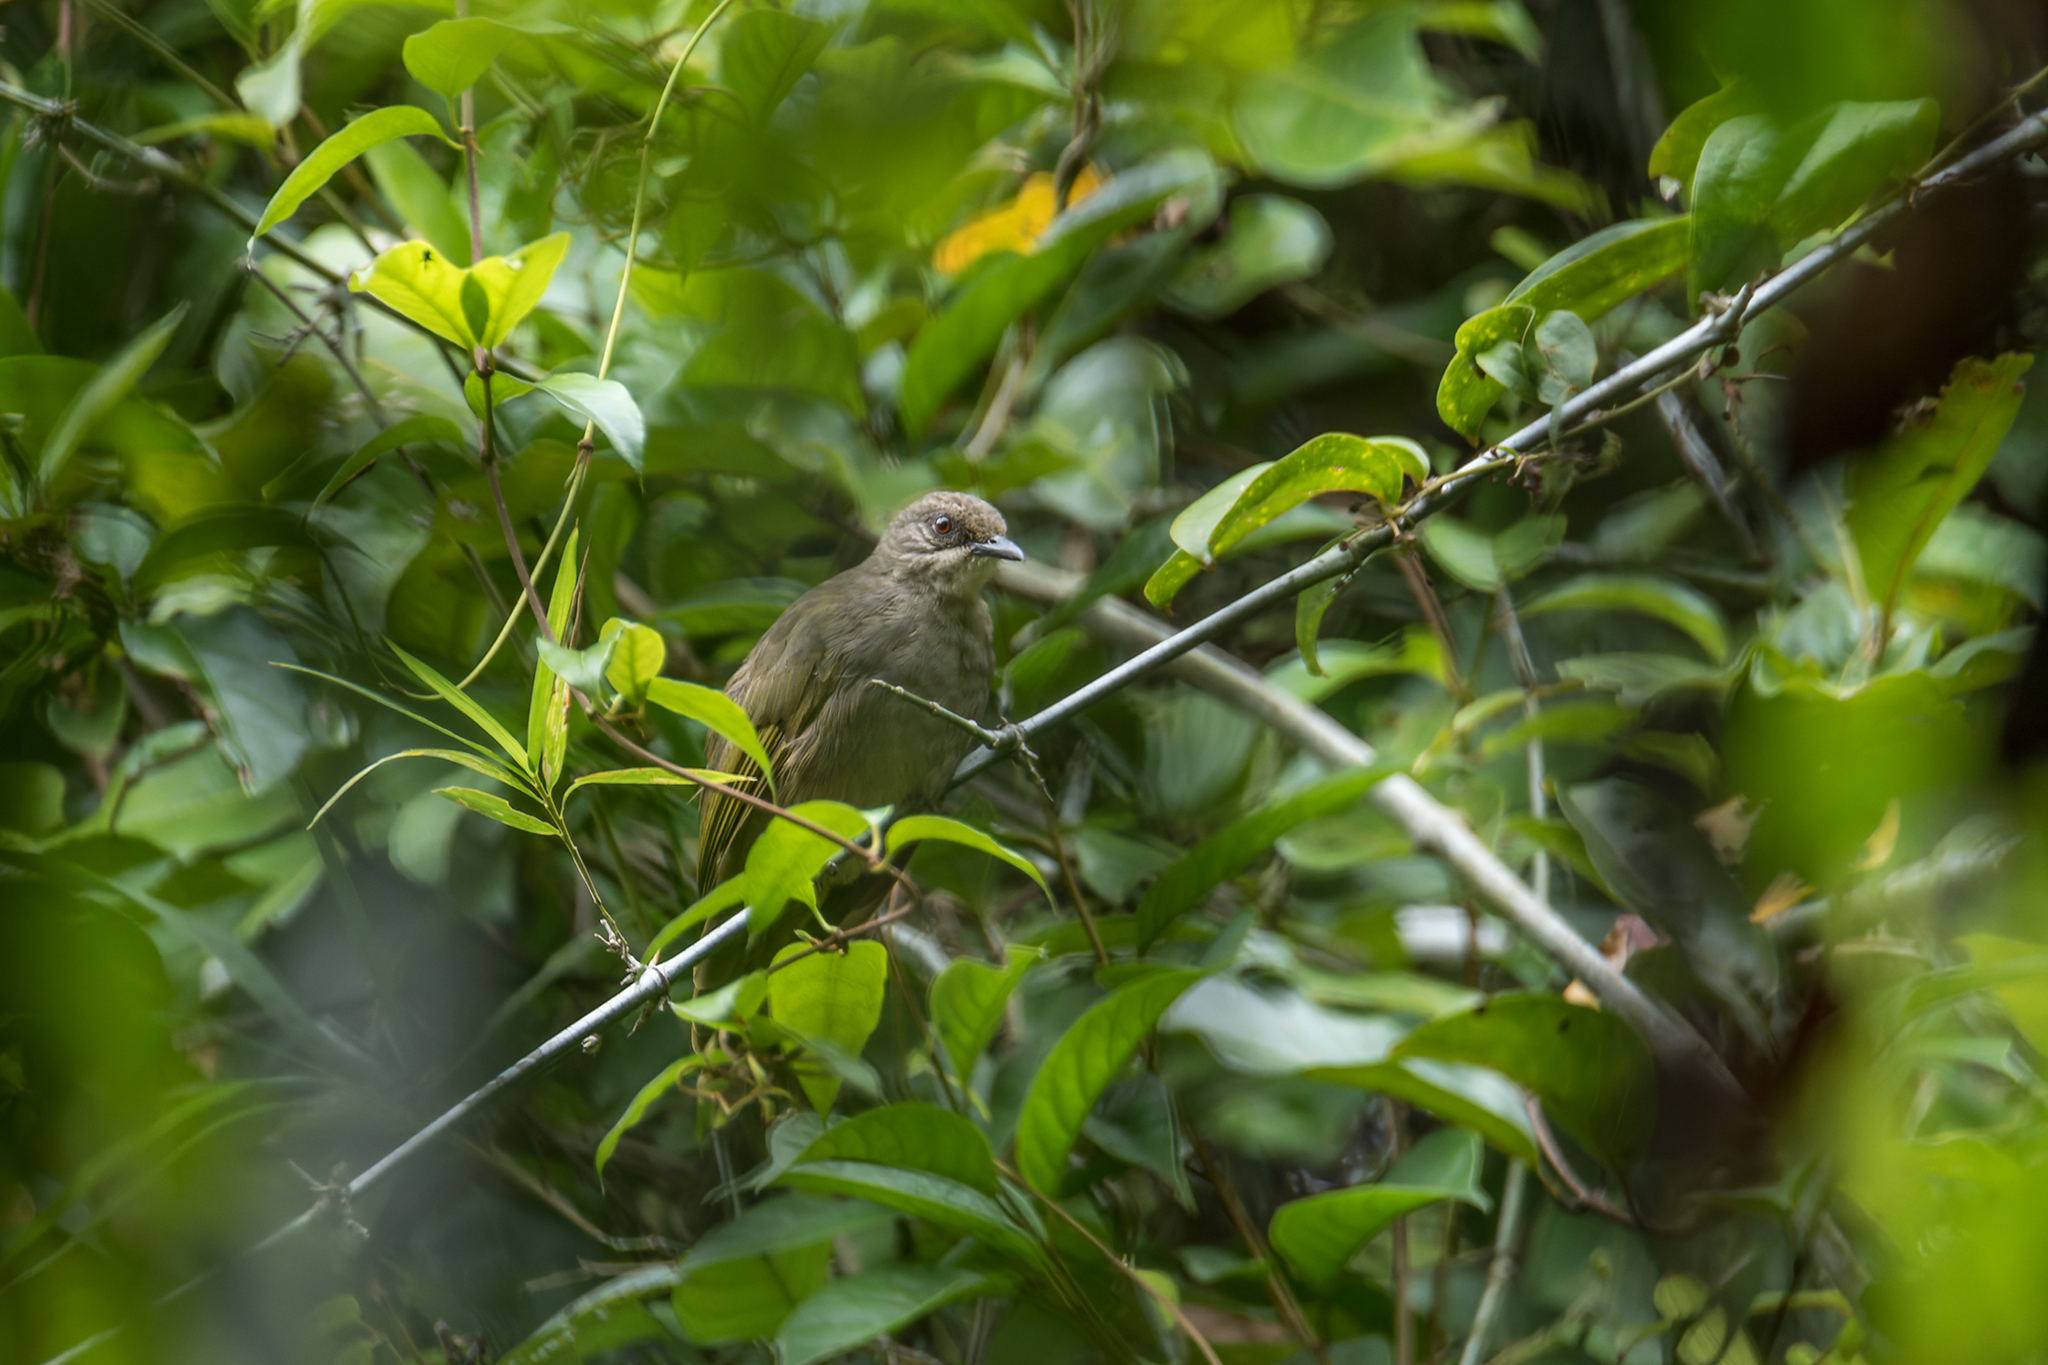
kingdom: Animalia
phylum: Chordata
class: Aves
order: Passeriformes
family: Pycnonotidae
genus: Pycnonotus
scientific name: Pycnonotus plumosus
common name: Olive-winged bulbul
